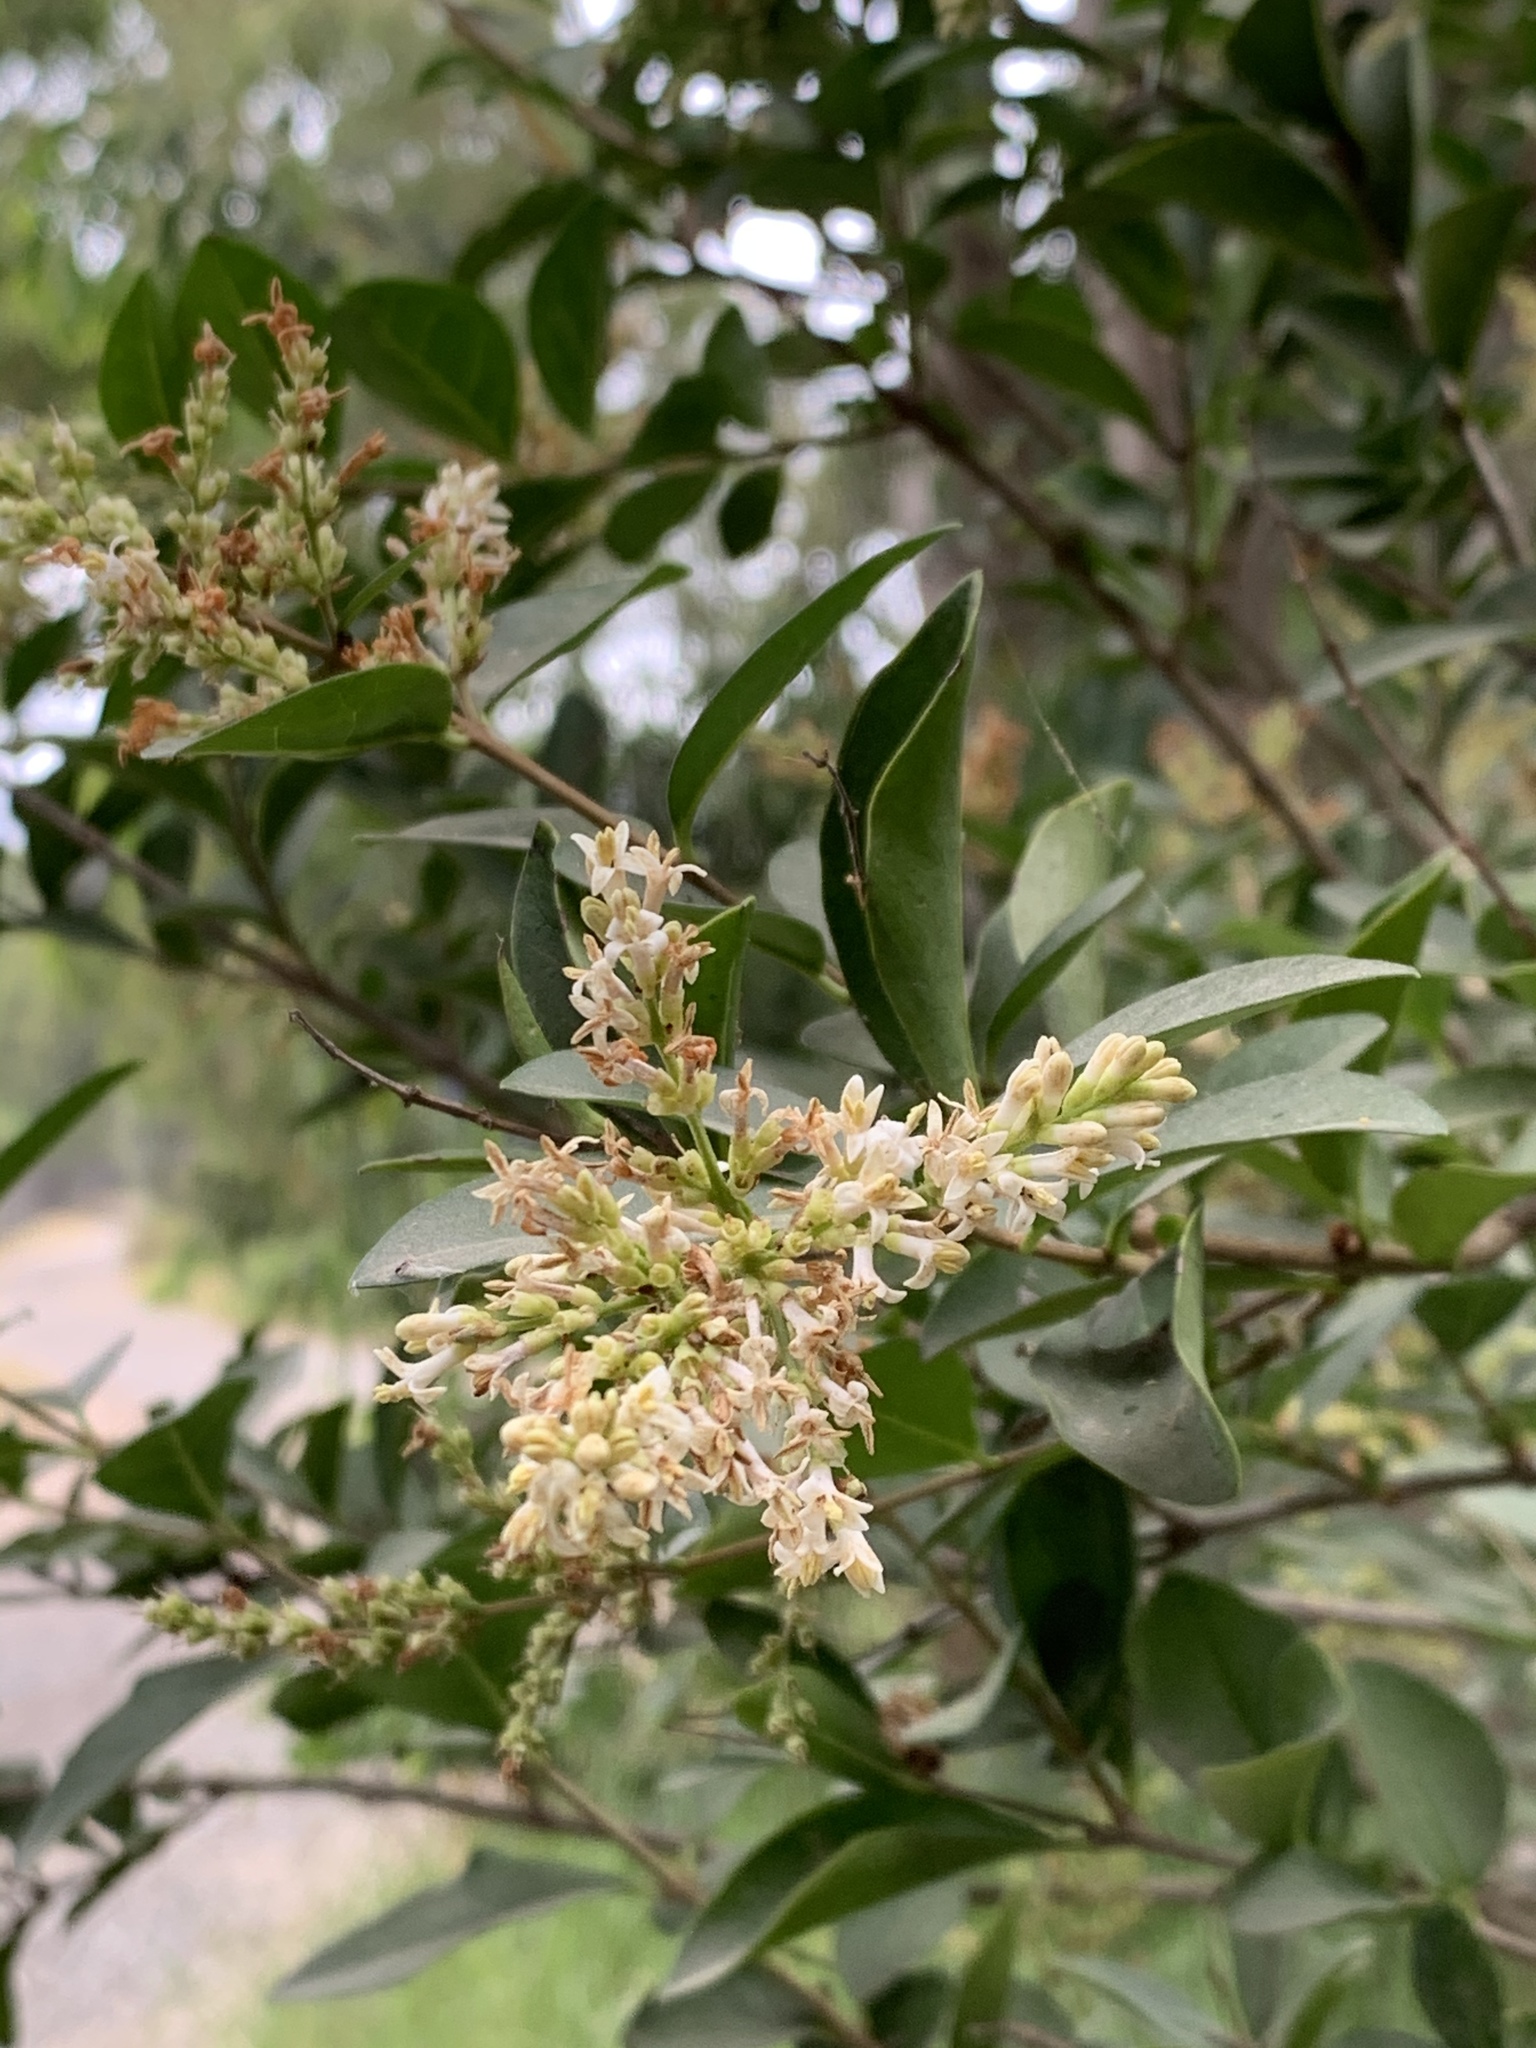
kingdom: Plantae
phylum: Tracheophyta
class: Magnoliopsida
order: Lamiales
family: Oleaceae
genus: Ligustrum
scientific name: Ligustrum ovalifolium
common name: California privet
